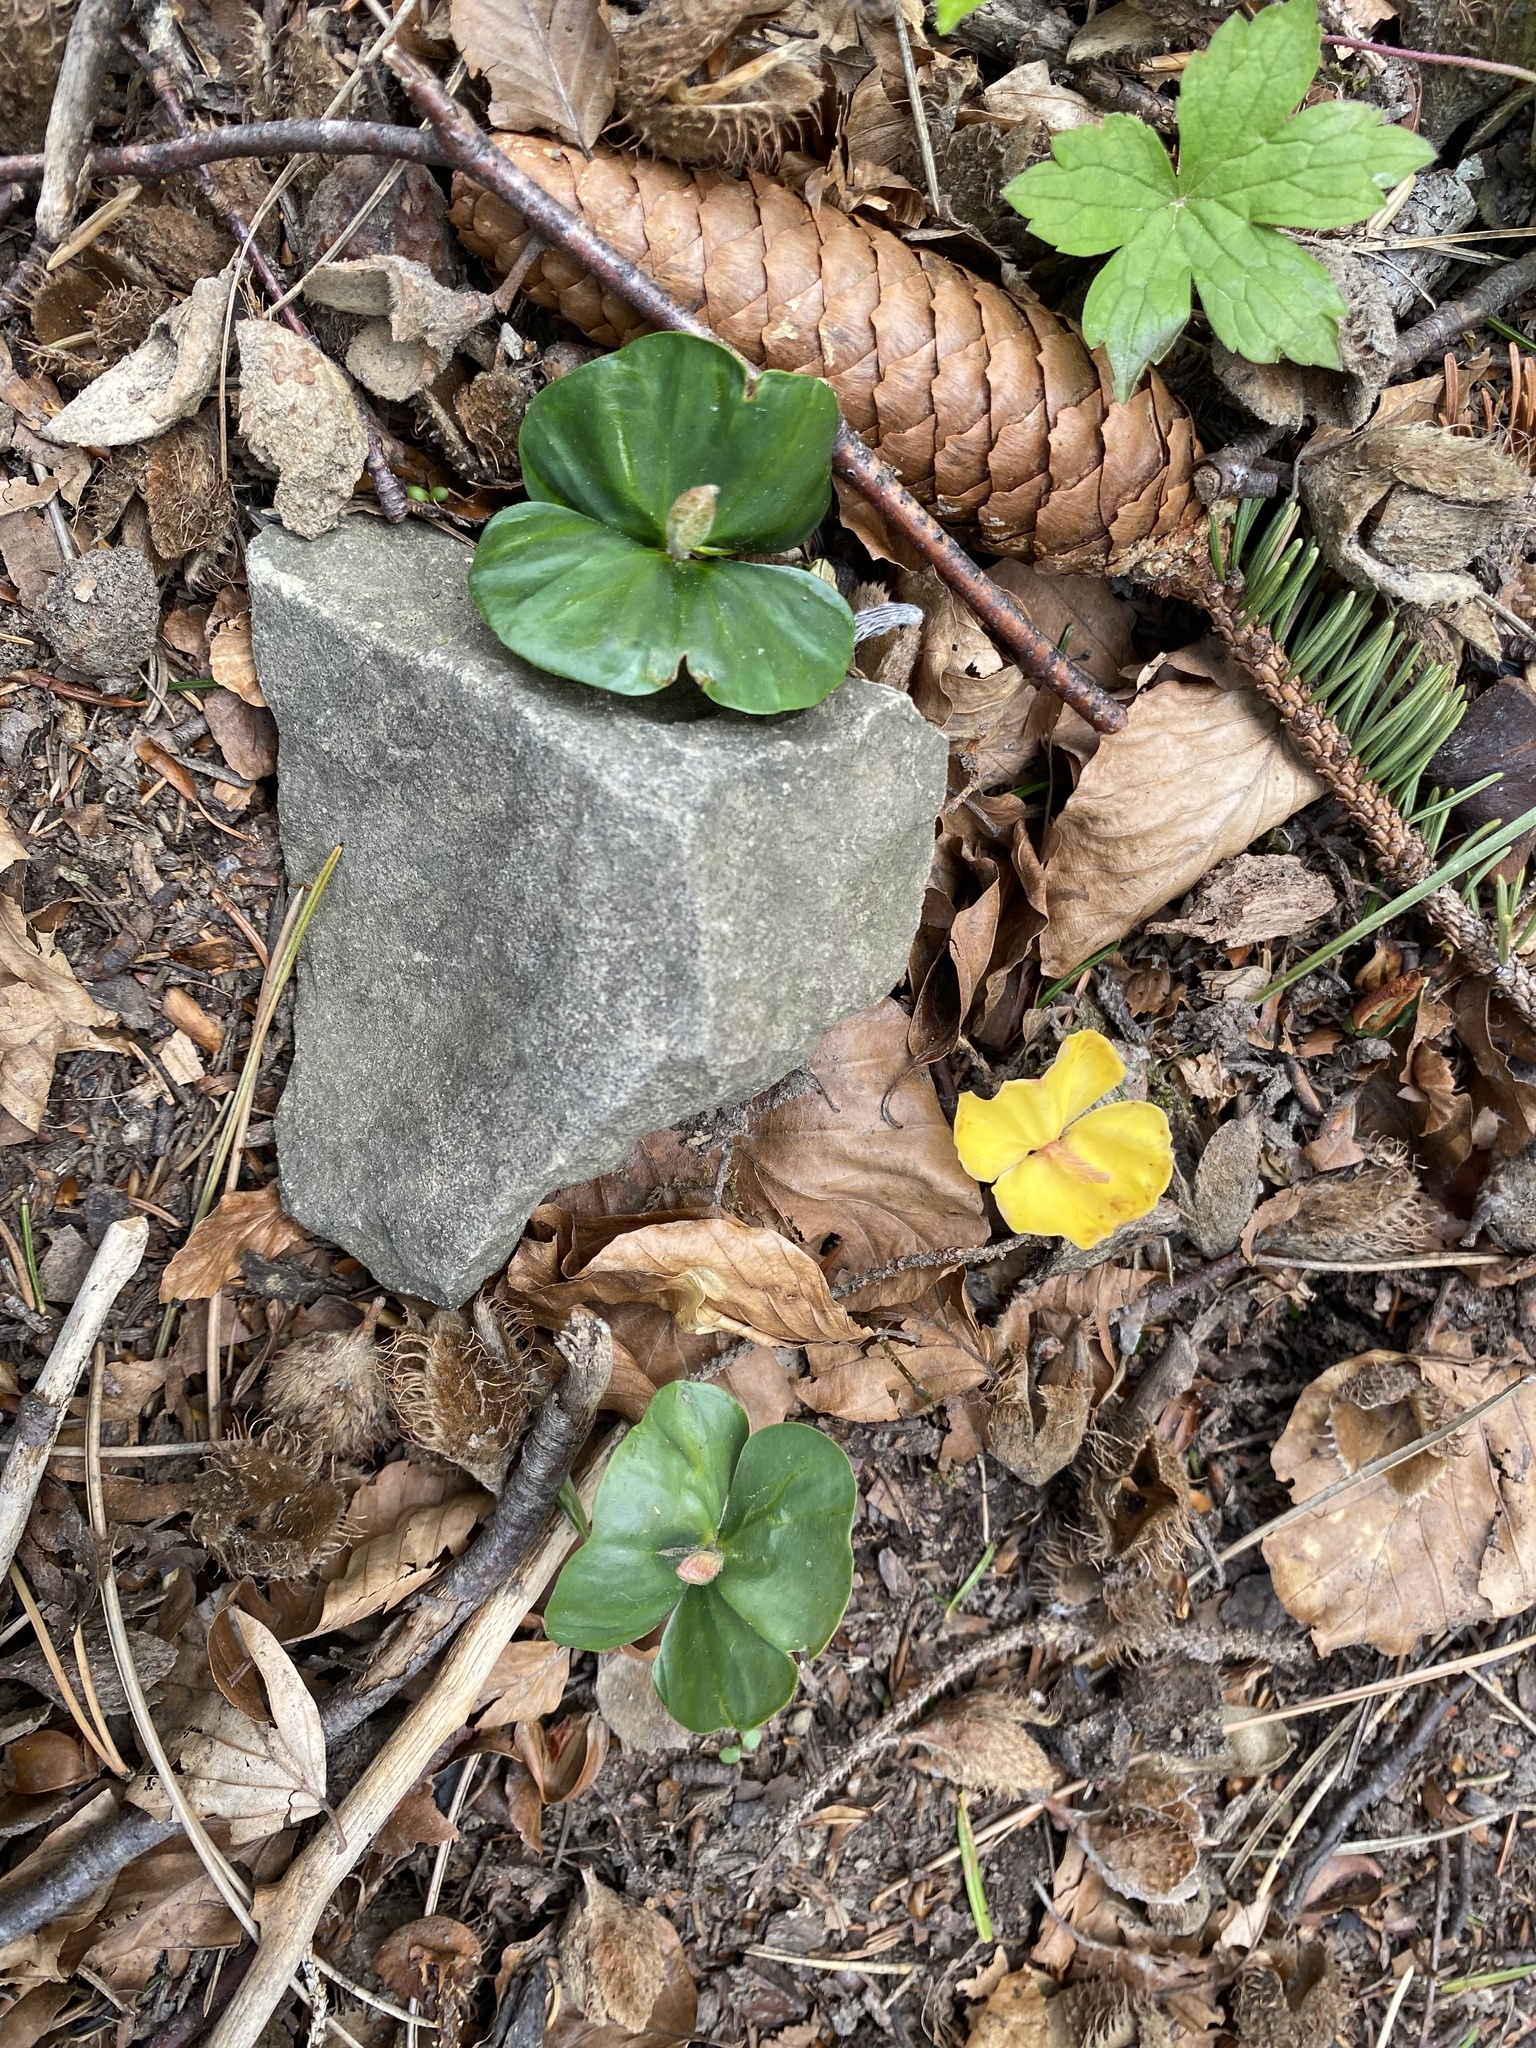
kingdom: Plantae
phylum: Tracheophyta
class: Magnoliopsida
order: Fagales
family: Fagaceae
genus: Fagus
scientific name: Fagus sylvatica
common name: Beech
